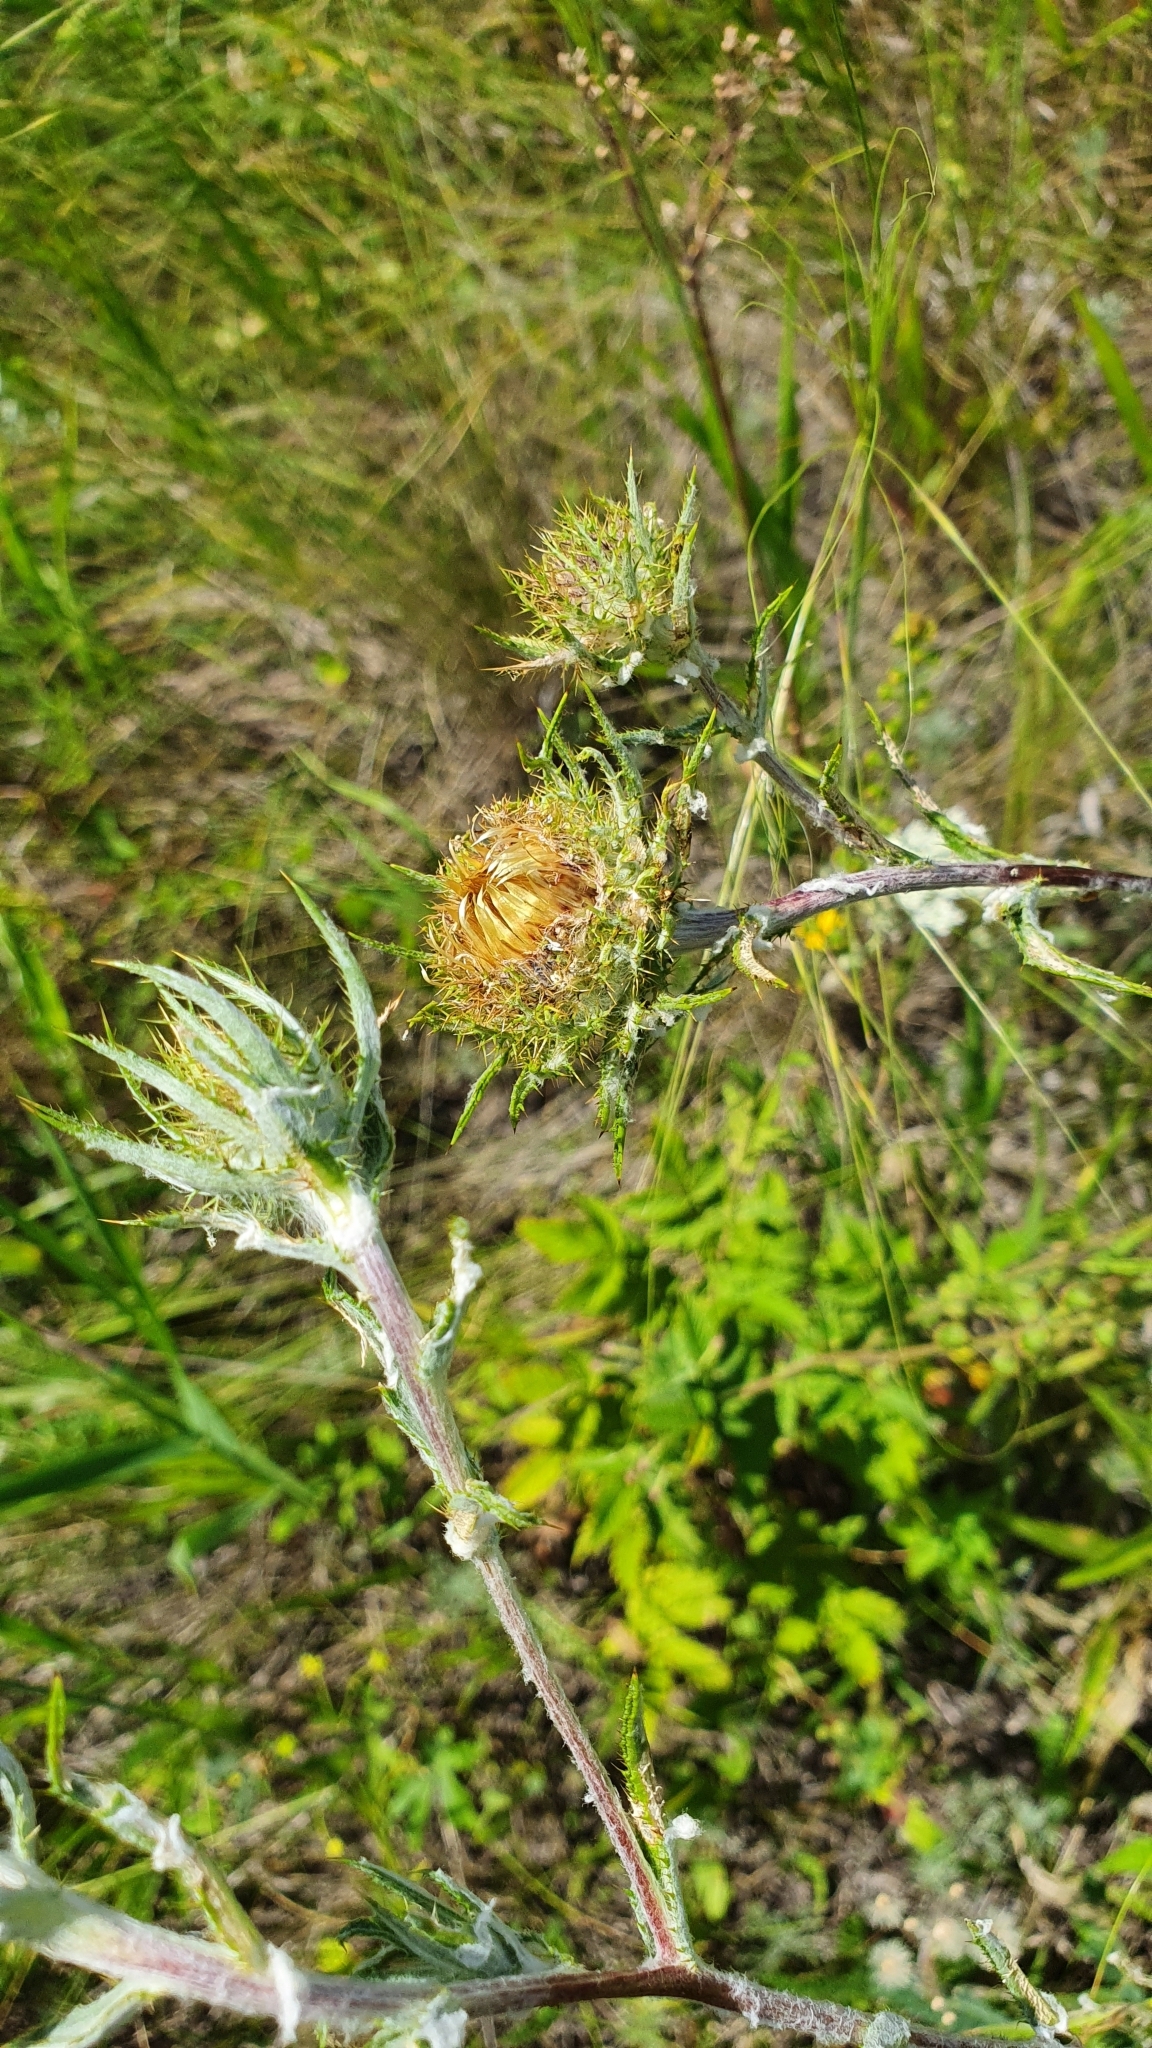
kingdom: Plantae
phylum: Tracheophyta
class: Magnoliopsida
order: Asterales
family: Asteraceae
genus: Carlina
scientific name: Carlina biebersteinii
